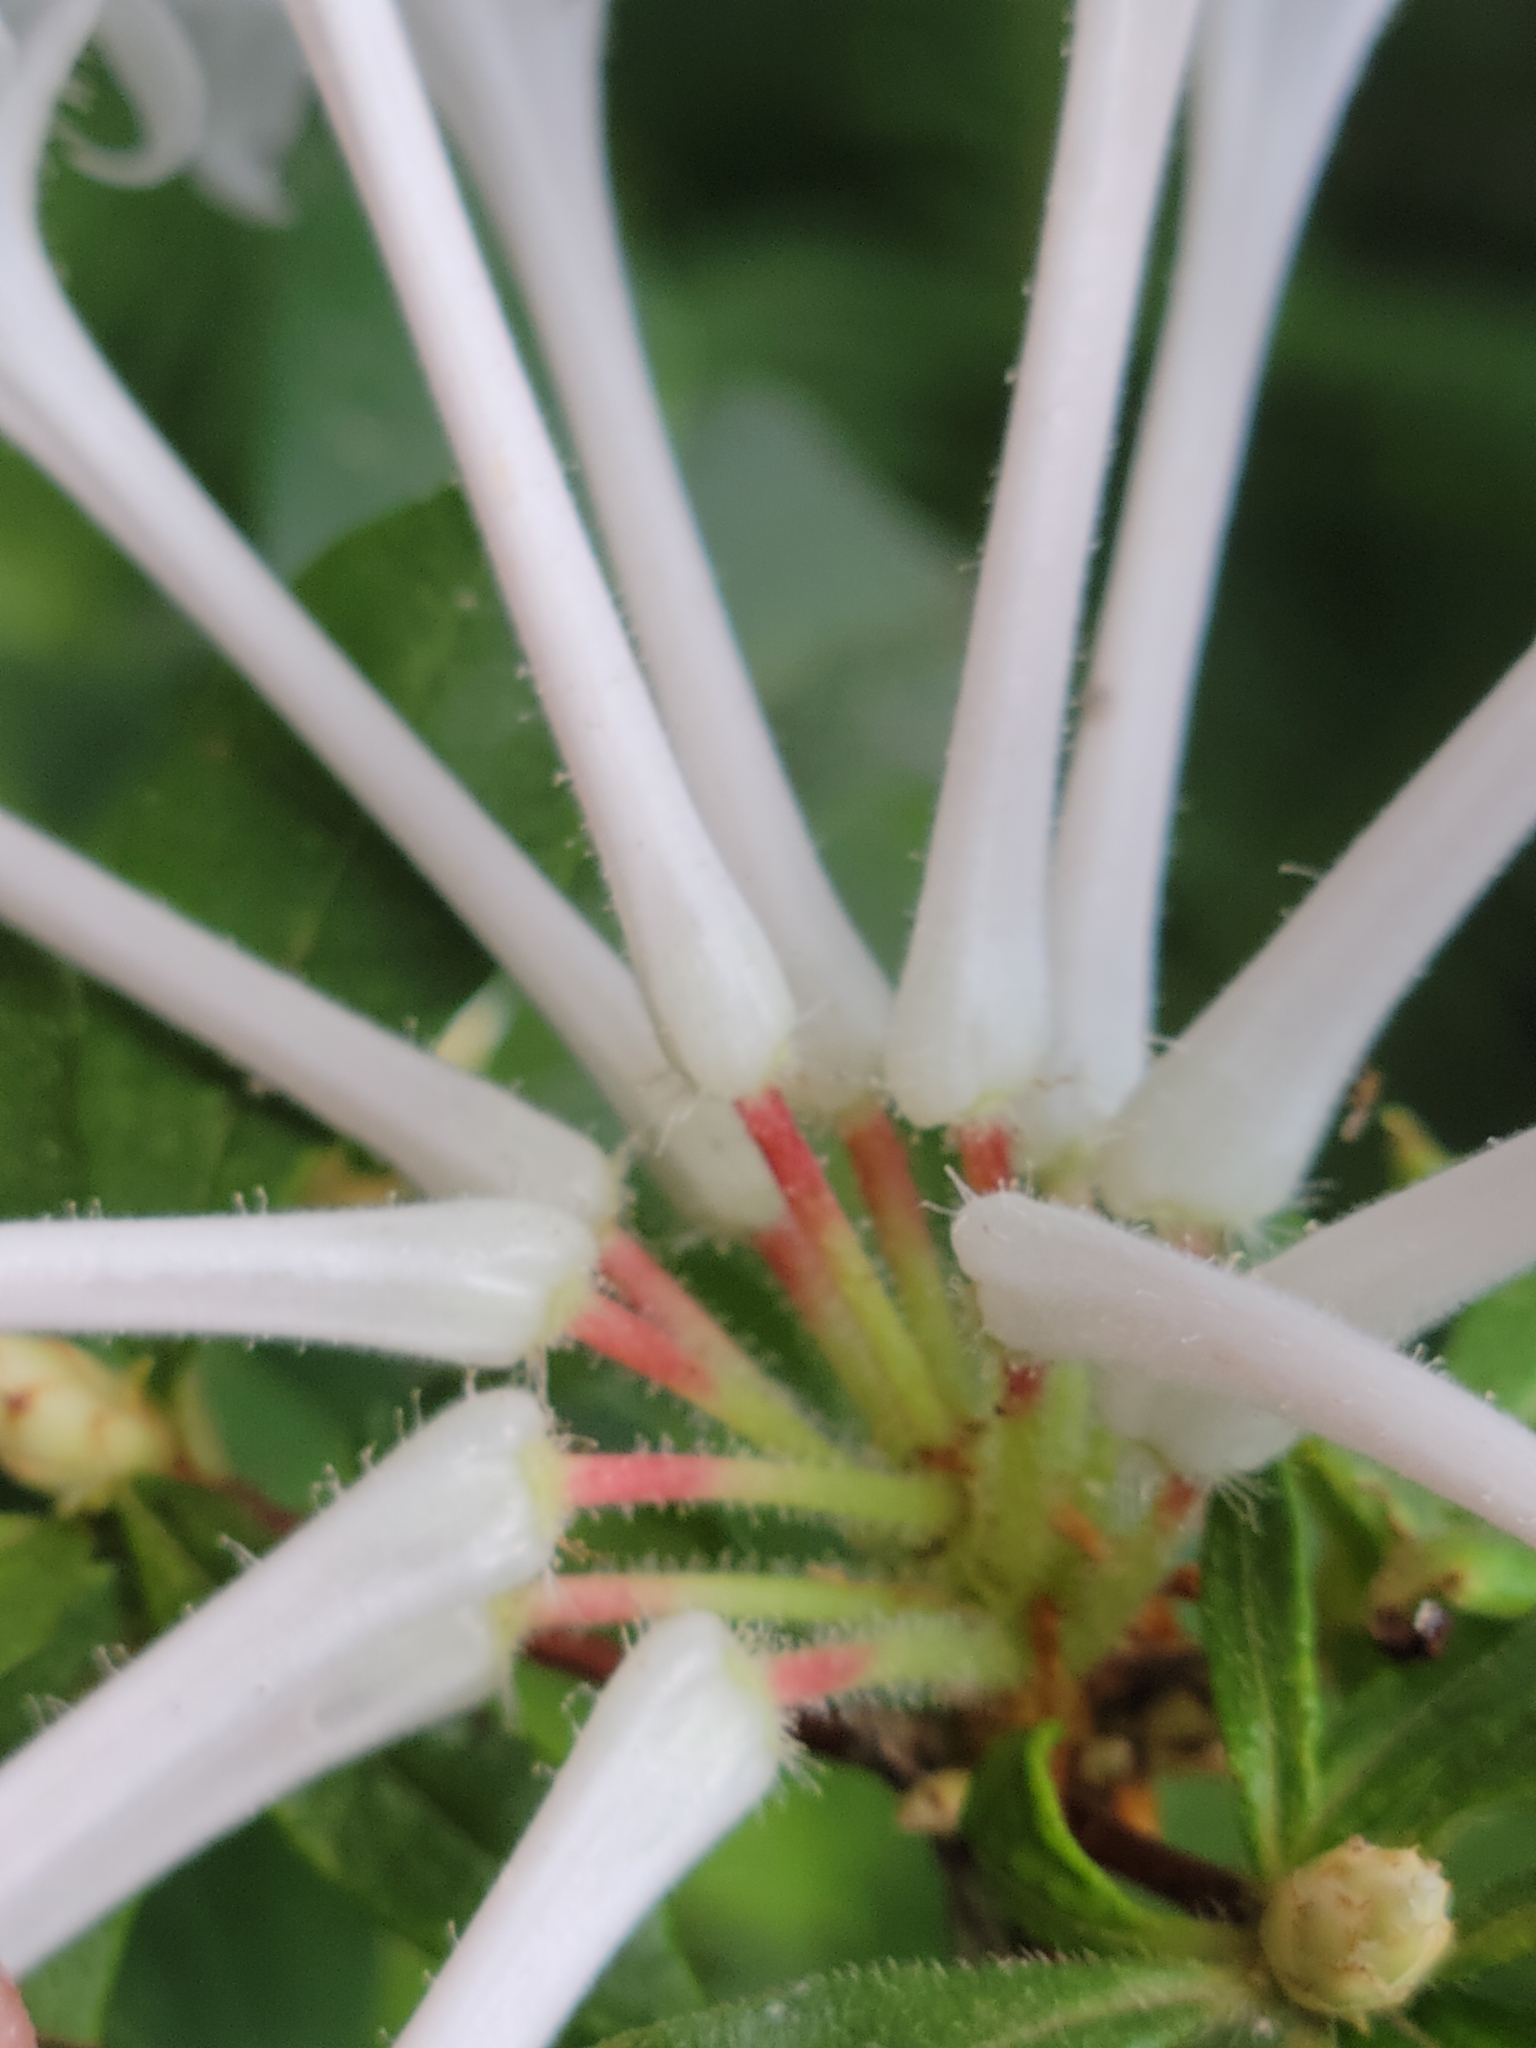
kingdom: Plantae
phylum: Tracheophyta
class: Magnoliopsida
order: Ericales
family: Ericaceae
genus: Rhododendron
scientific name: Rhododendron serrulatum
